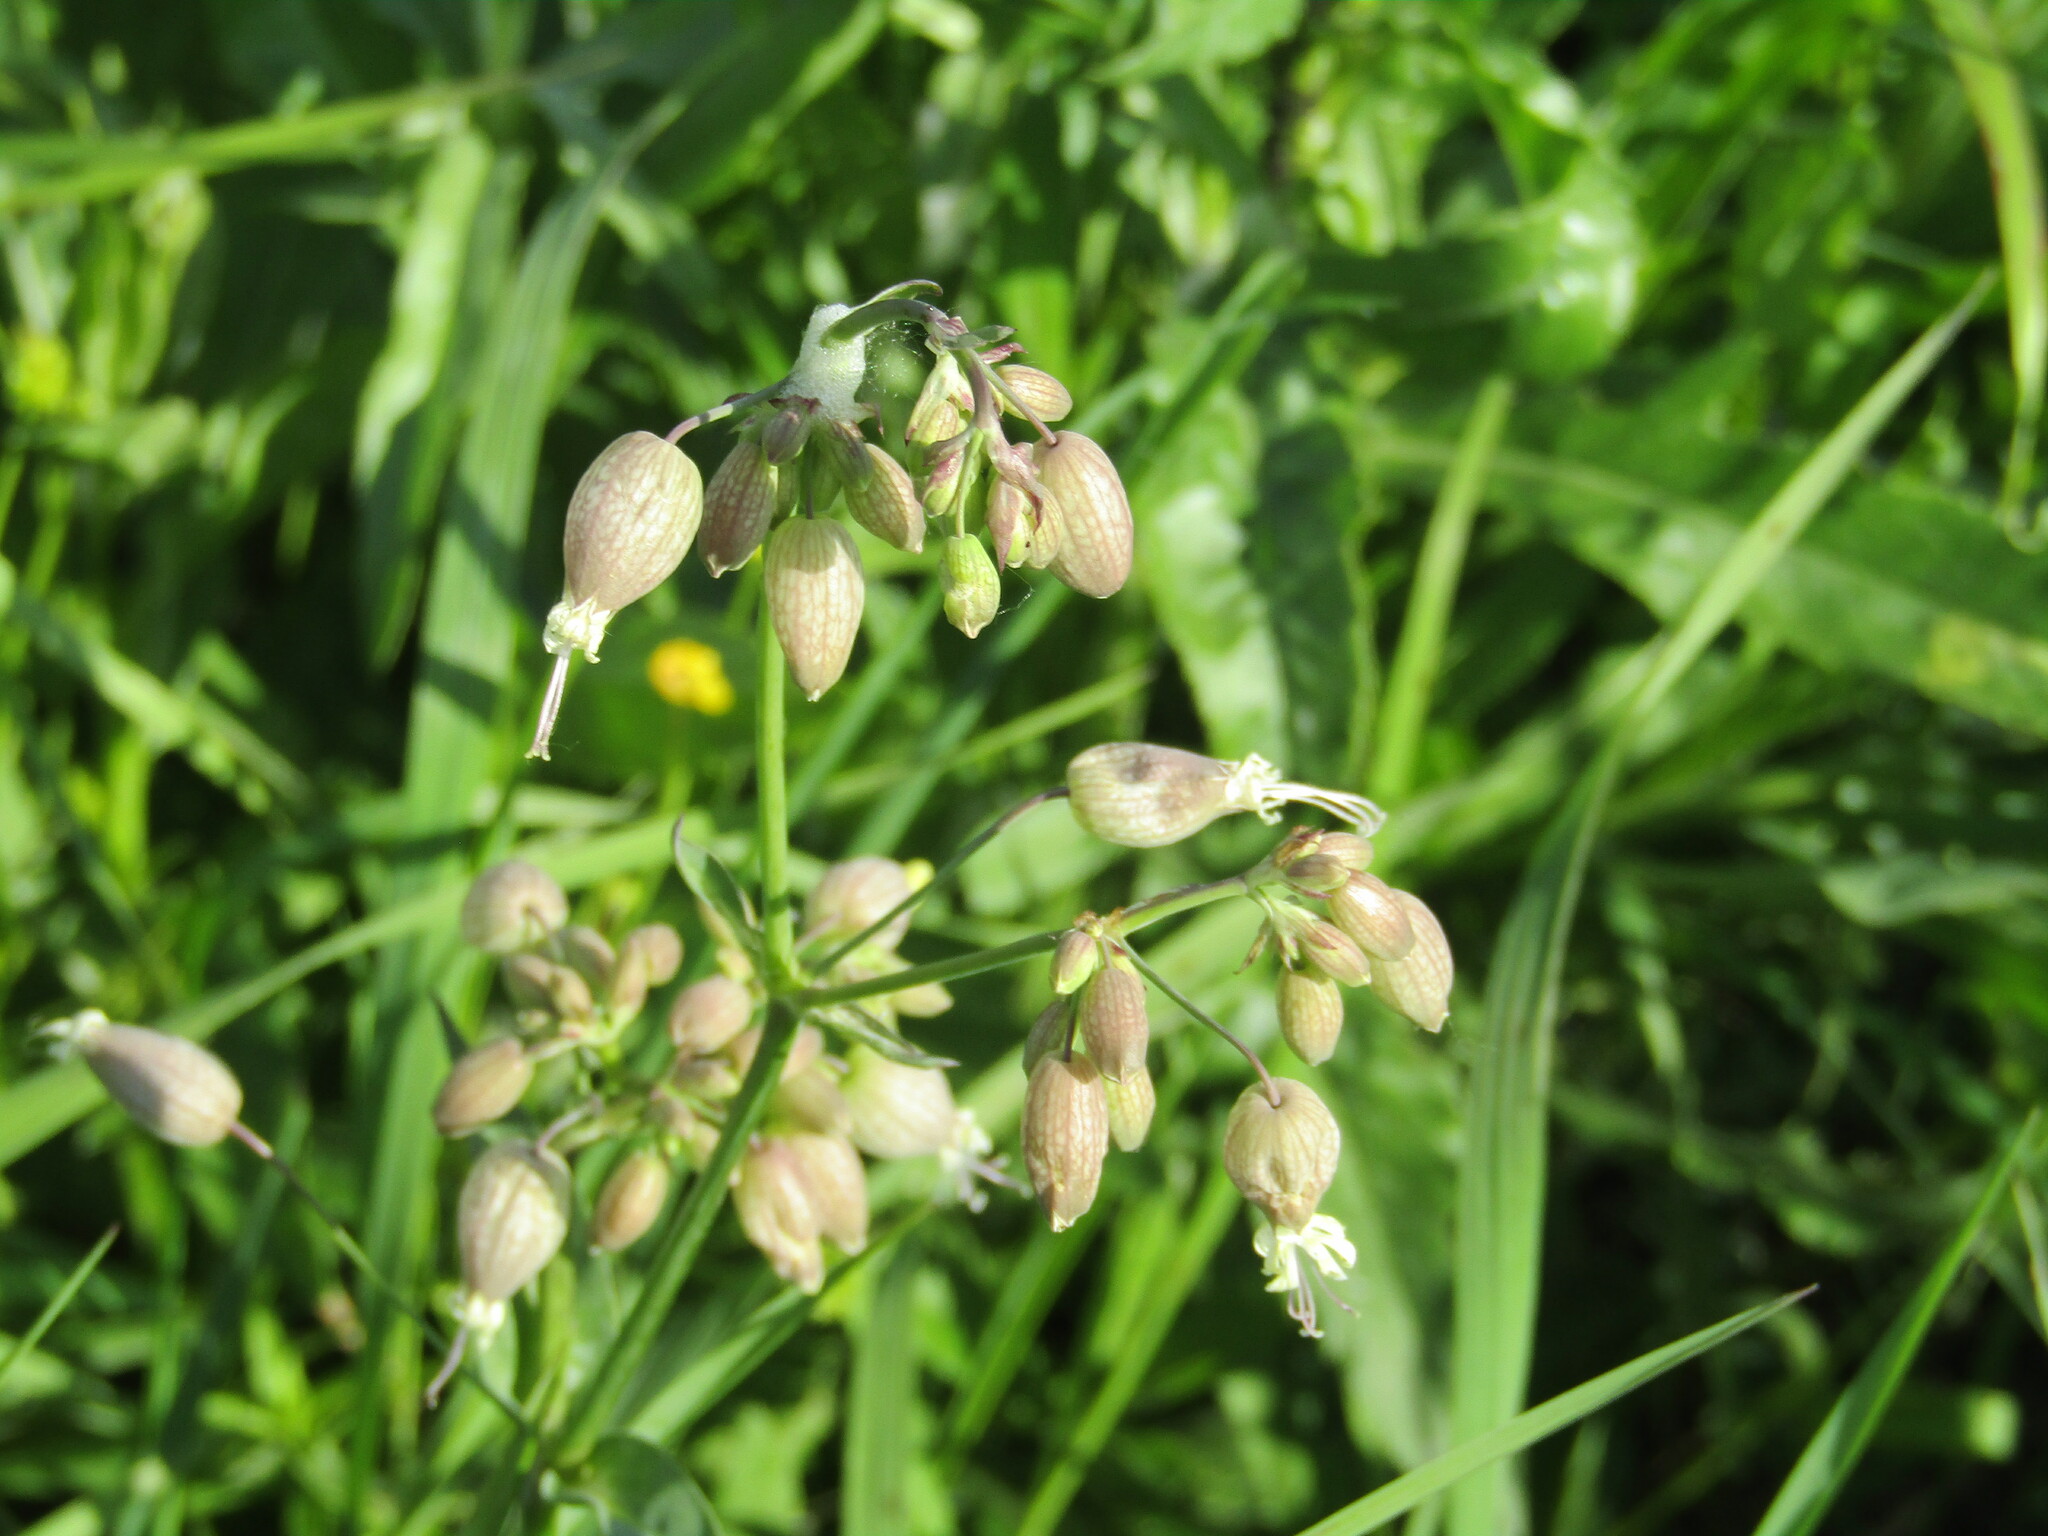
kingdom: Plantae
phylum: Tracheophyta
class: Magnoliopsida
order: Caryophyllales
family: Caryophyllaceae
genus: Silene
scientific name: Silene vulgaris
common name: Bladder campion
